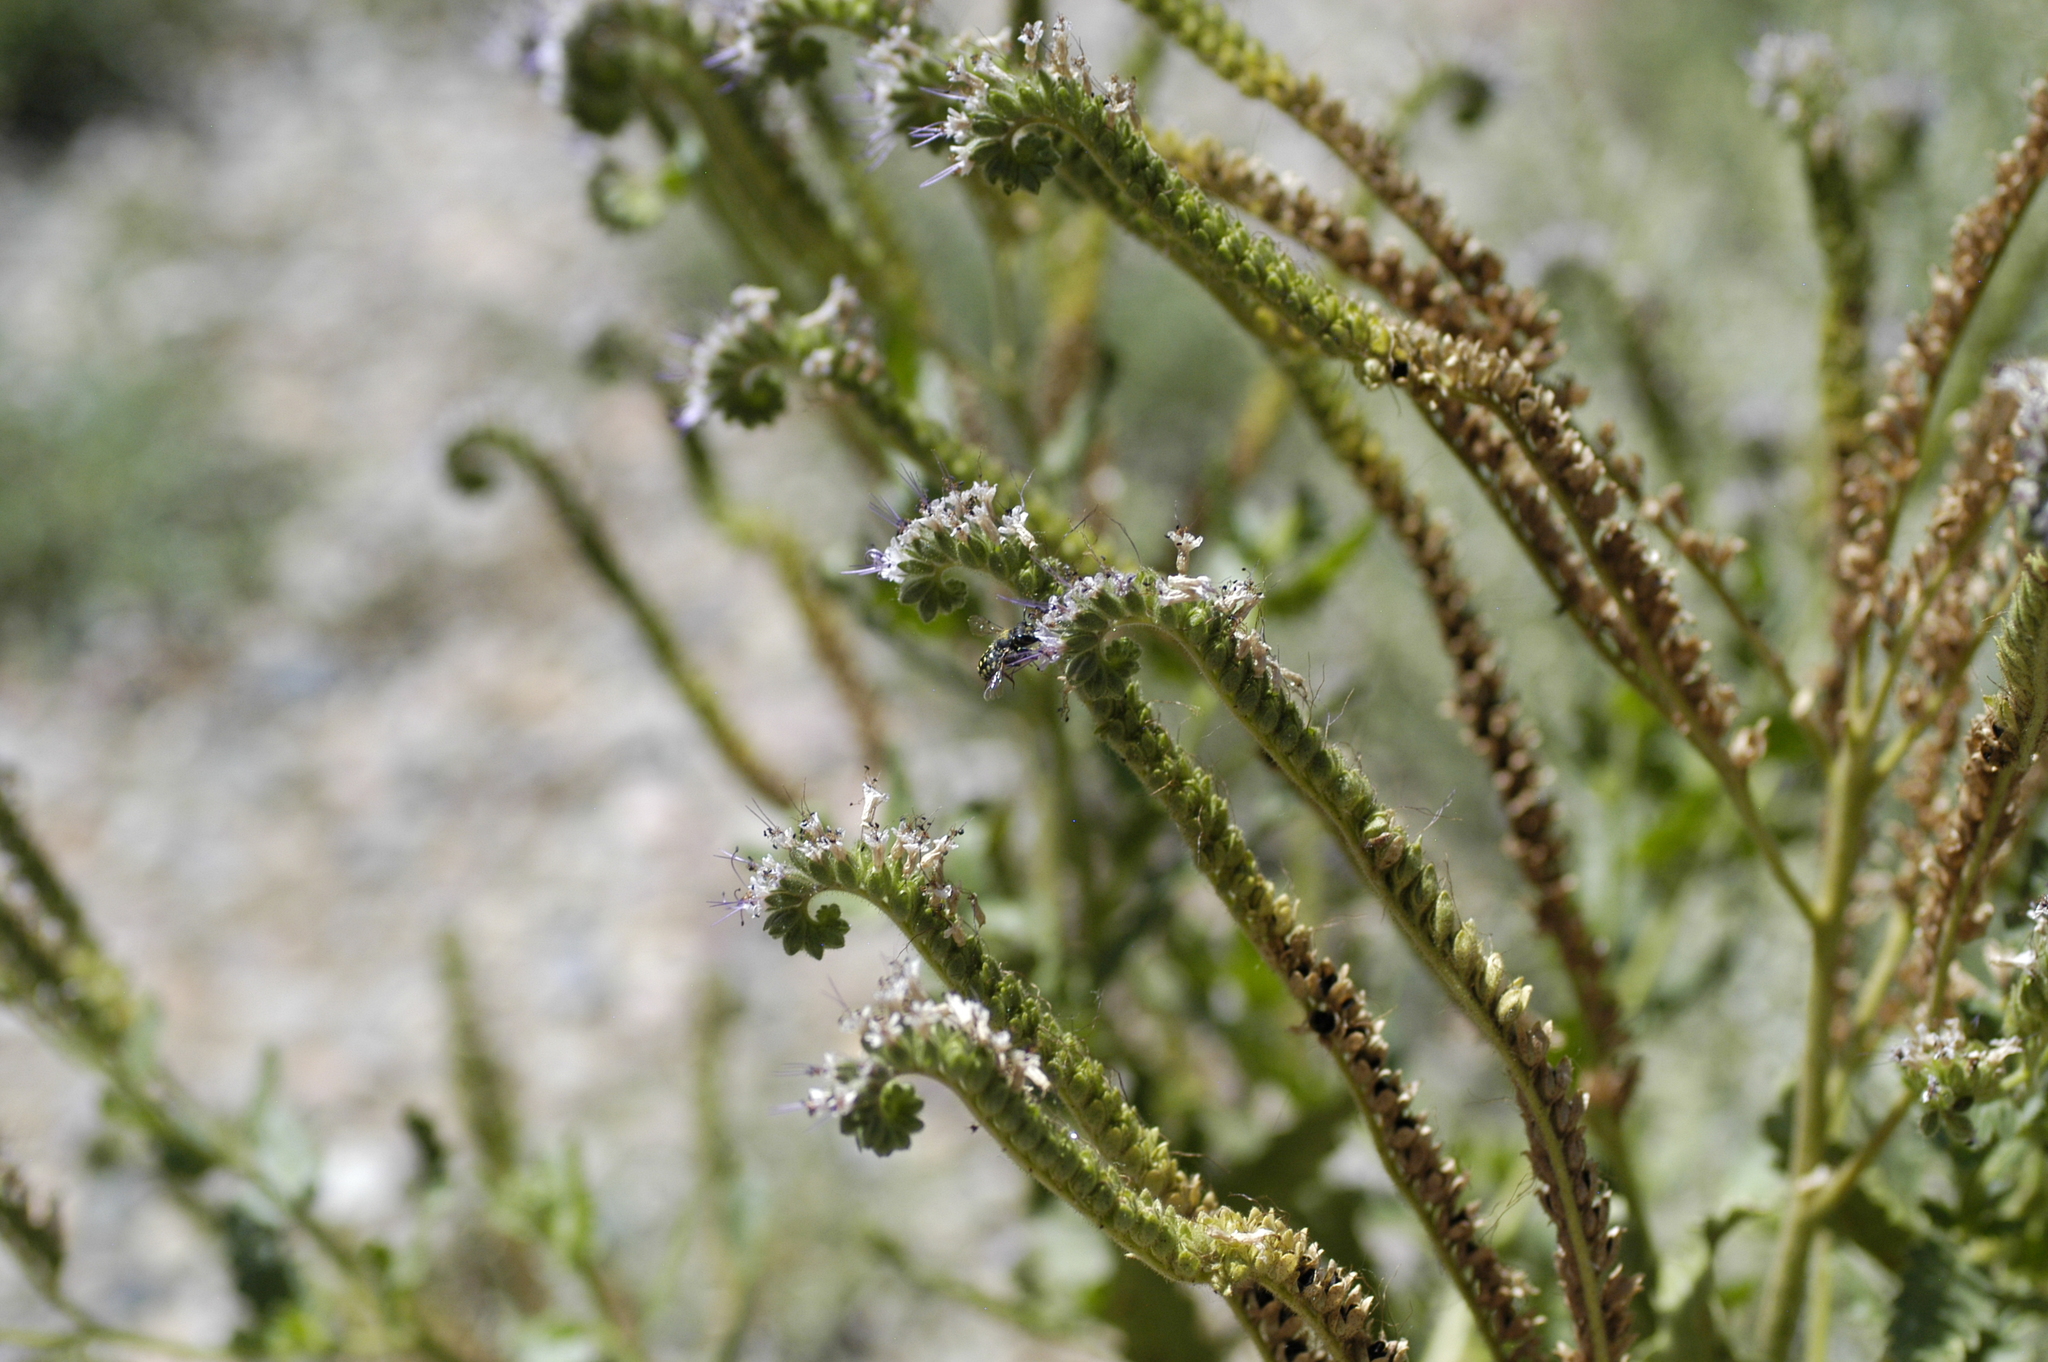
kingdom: Animalia
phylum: Arthropoda
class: Insecta
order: Hymenoptera
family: Megachilidae
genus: Anthidium
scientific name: Anthidium maculosum
